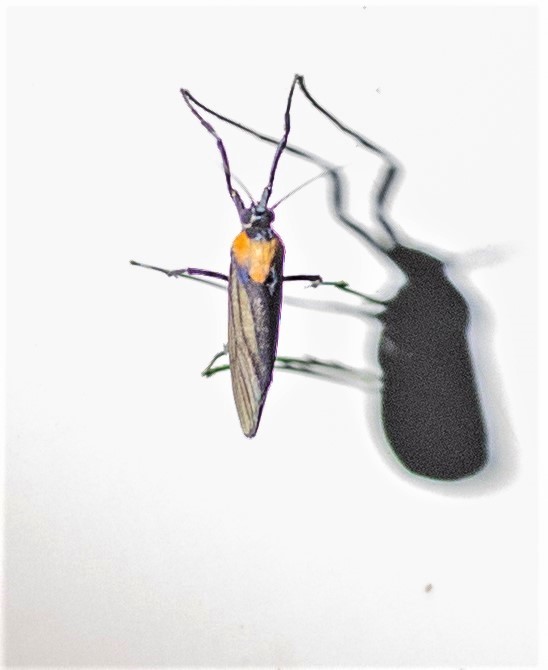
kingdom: Animalia
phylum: Arthropoda
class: Insecta
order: Lepidoptera
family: Erebidae
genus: Balbura
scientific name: Balbura intervenata
